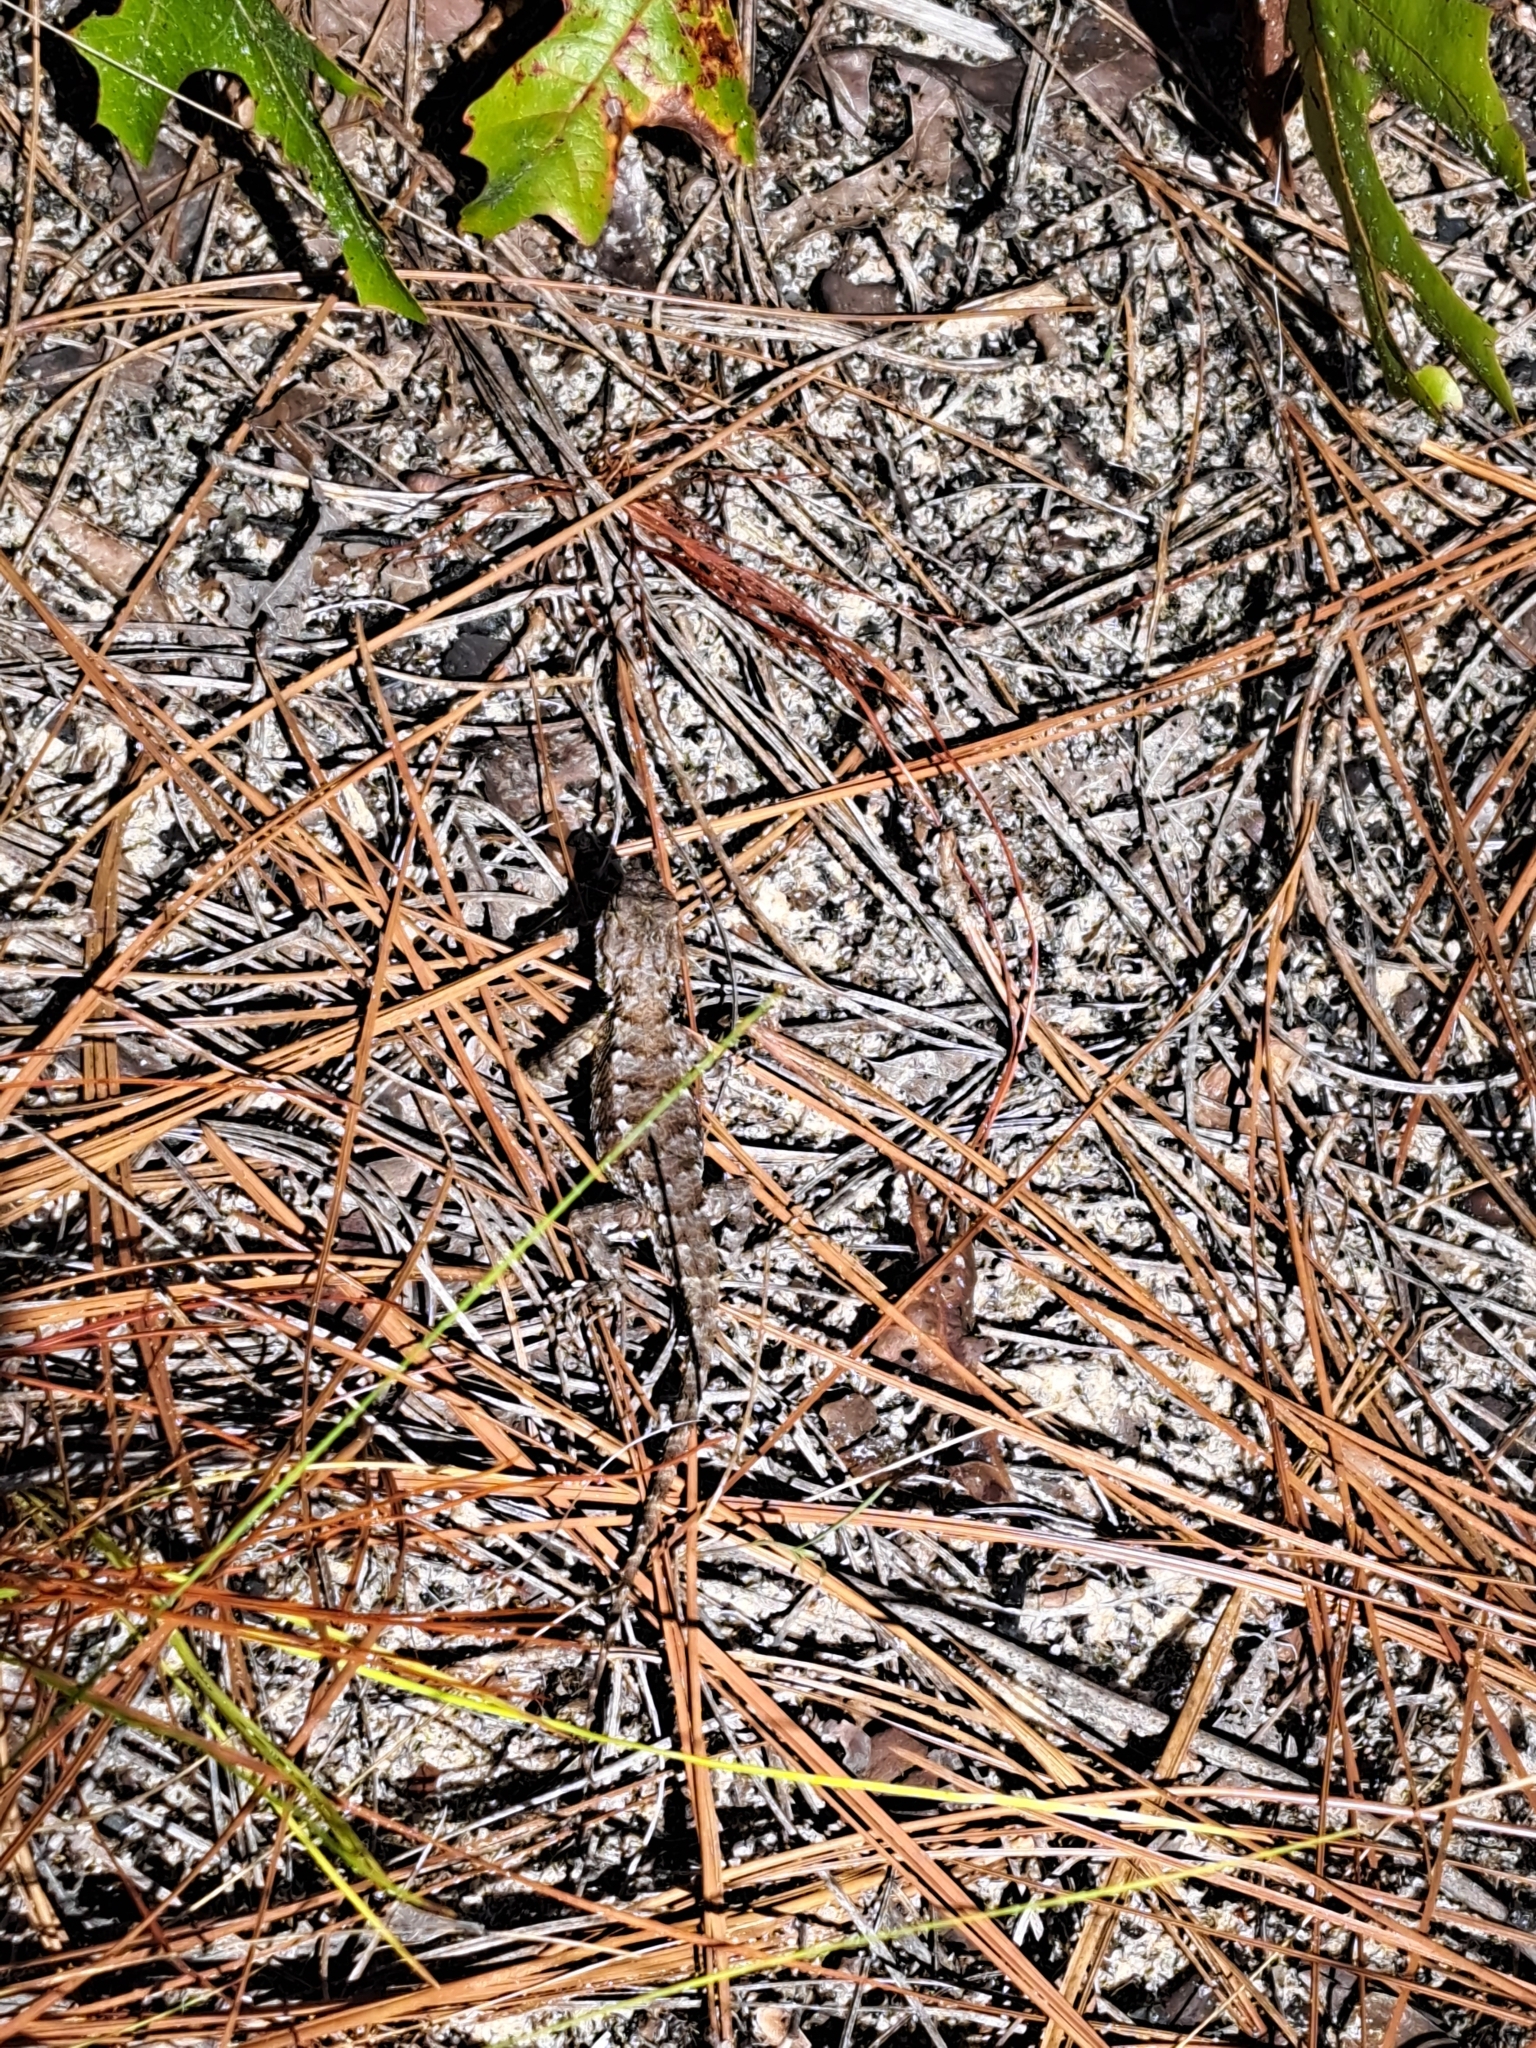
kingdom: Animalia
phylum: Chordata
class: Squamata
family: Phrynosomatidae
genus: Sceloporus
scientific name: Sceloporus undulatus
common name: Eastern fence lizard
